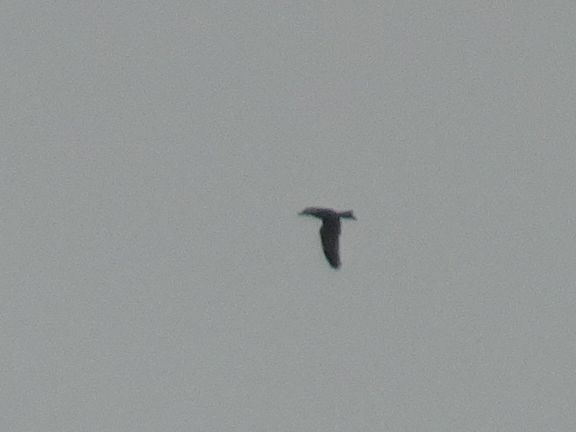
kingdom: Animalia
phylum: Chordata
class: Aves
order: Accipitriformes
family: Accipitridae
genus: Milvus
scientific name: Milvus migrans
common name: Black kite
